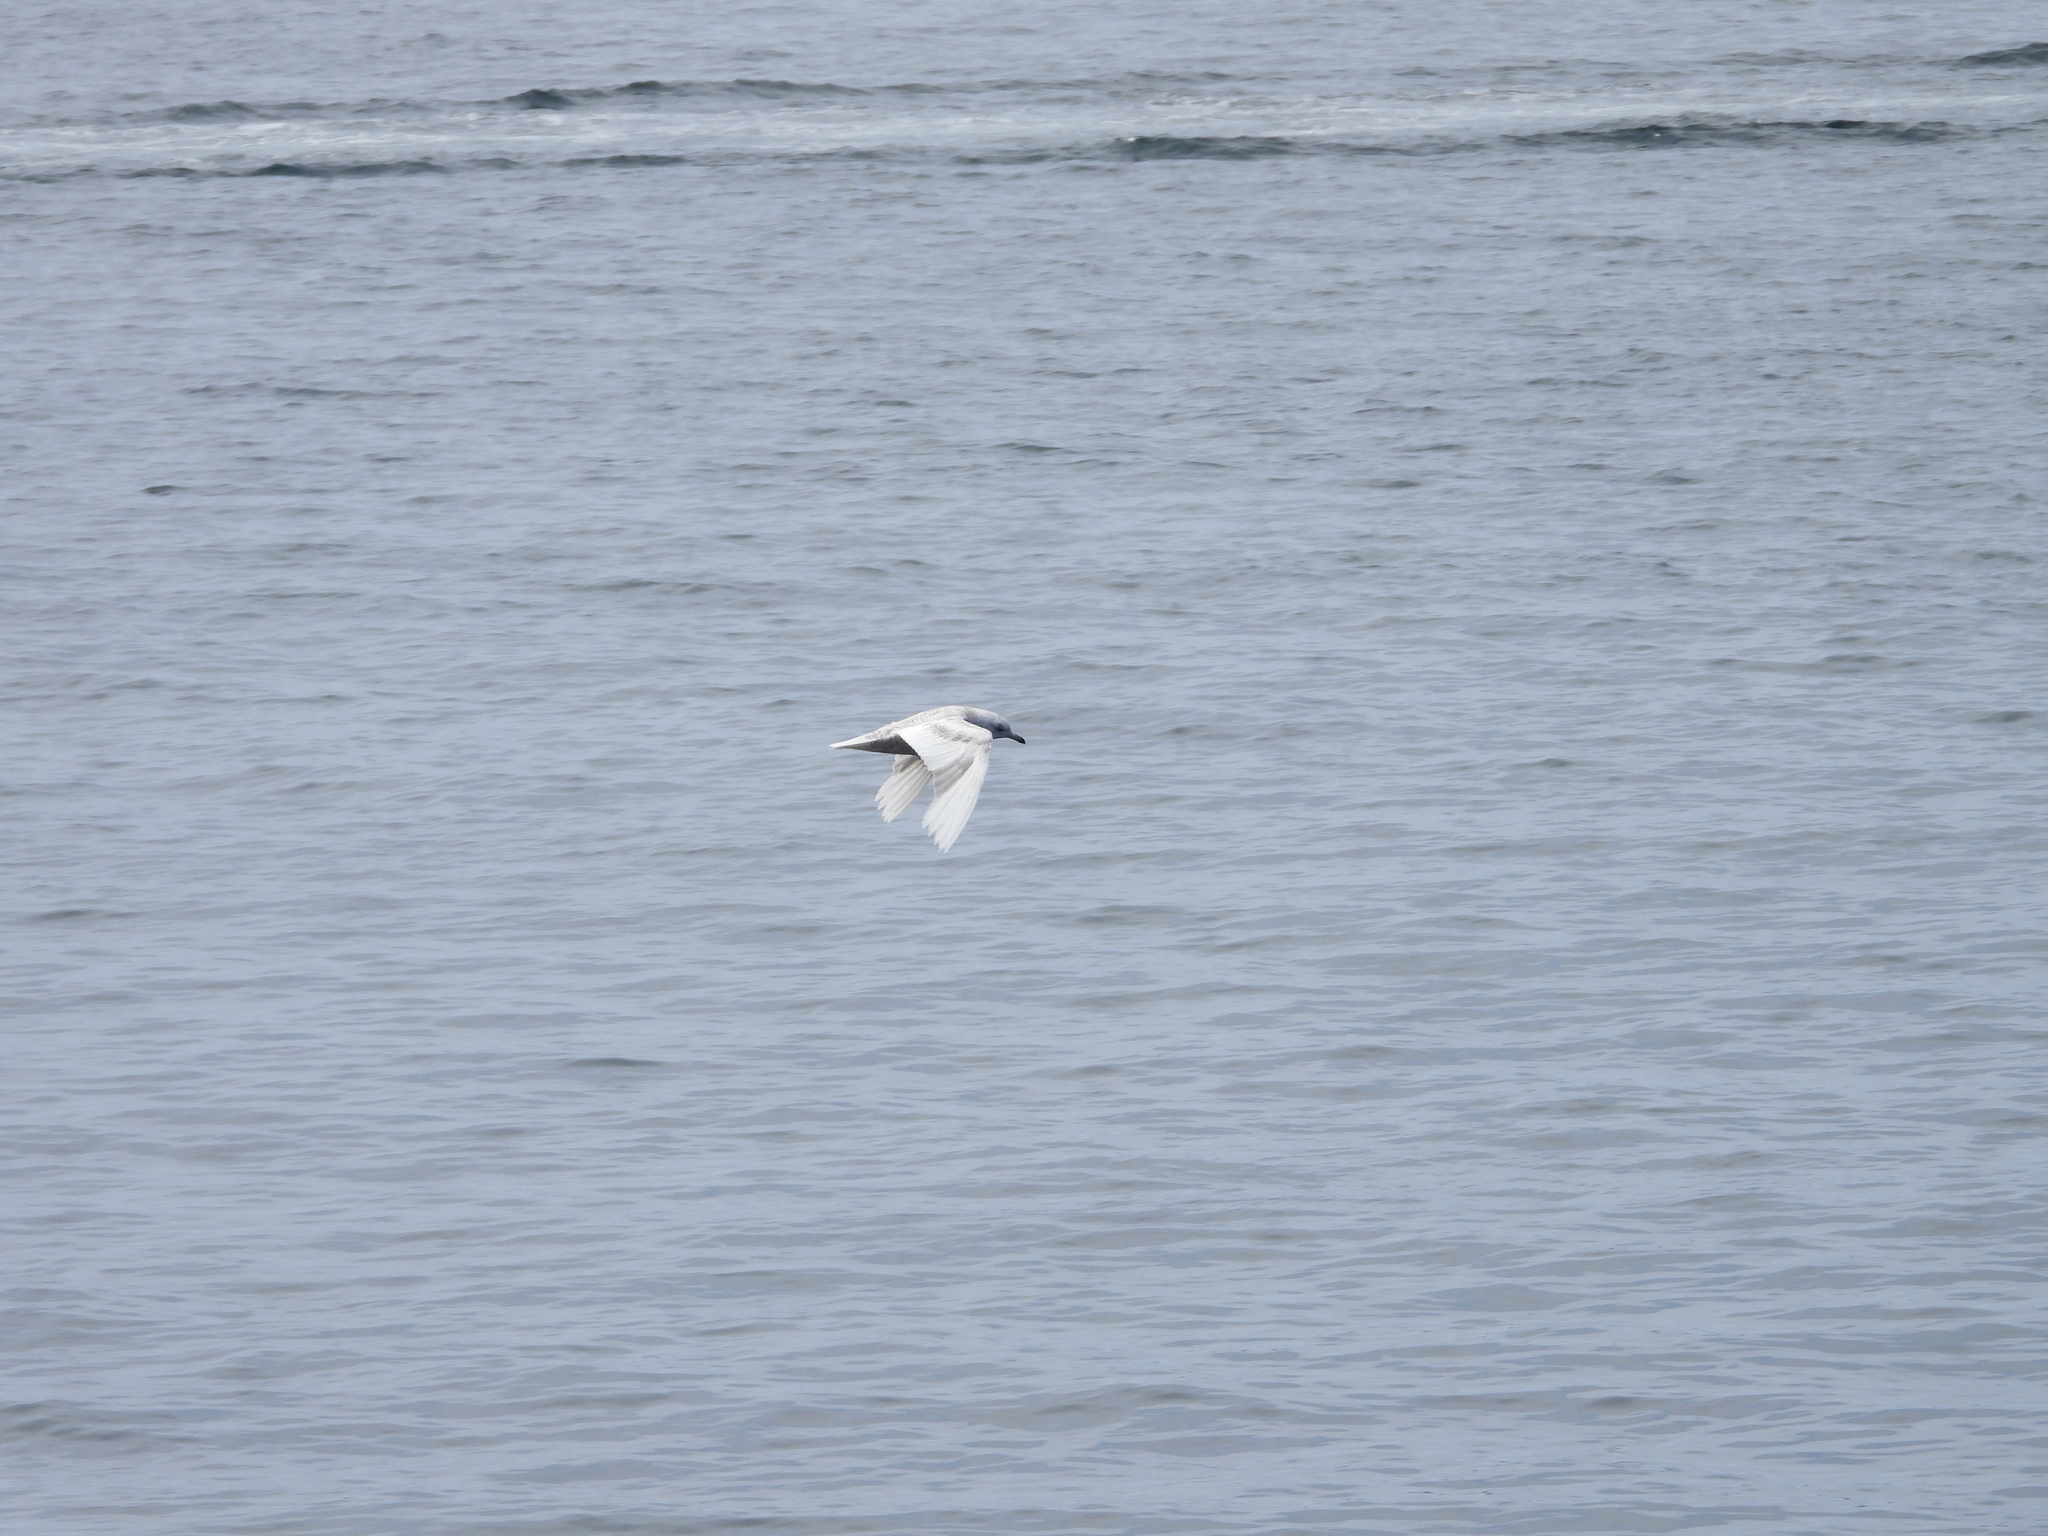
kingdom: Animalia
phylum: Chordata
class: Aves
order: Charadriiformes
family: Laridae
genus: Larus
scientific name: Larus glaucoides
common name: Iceland gull
